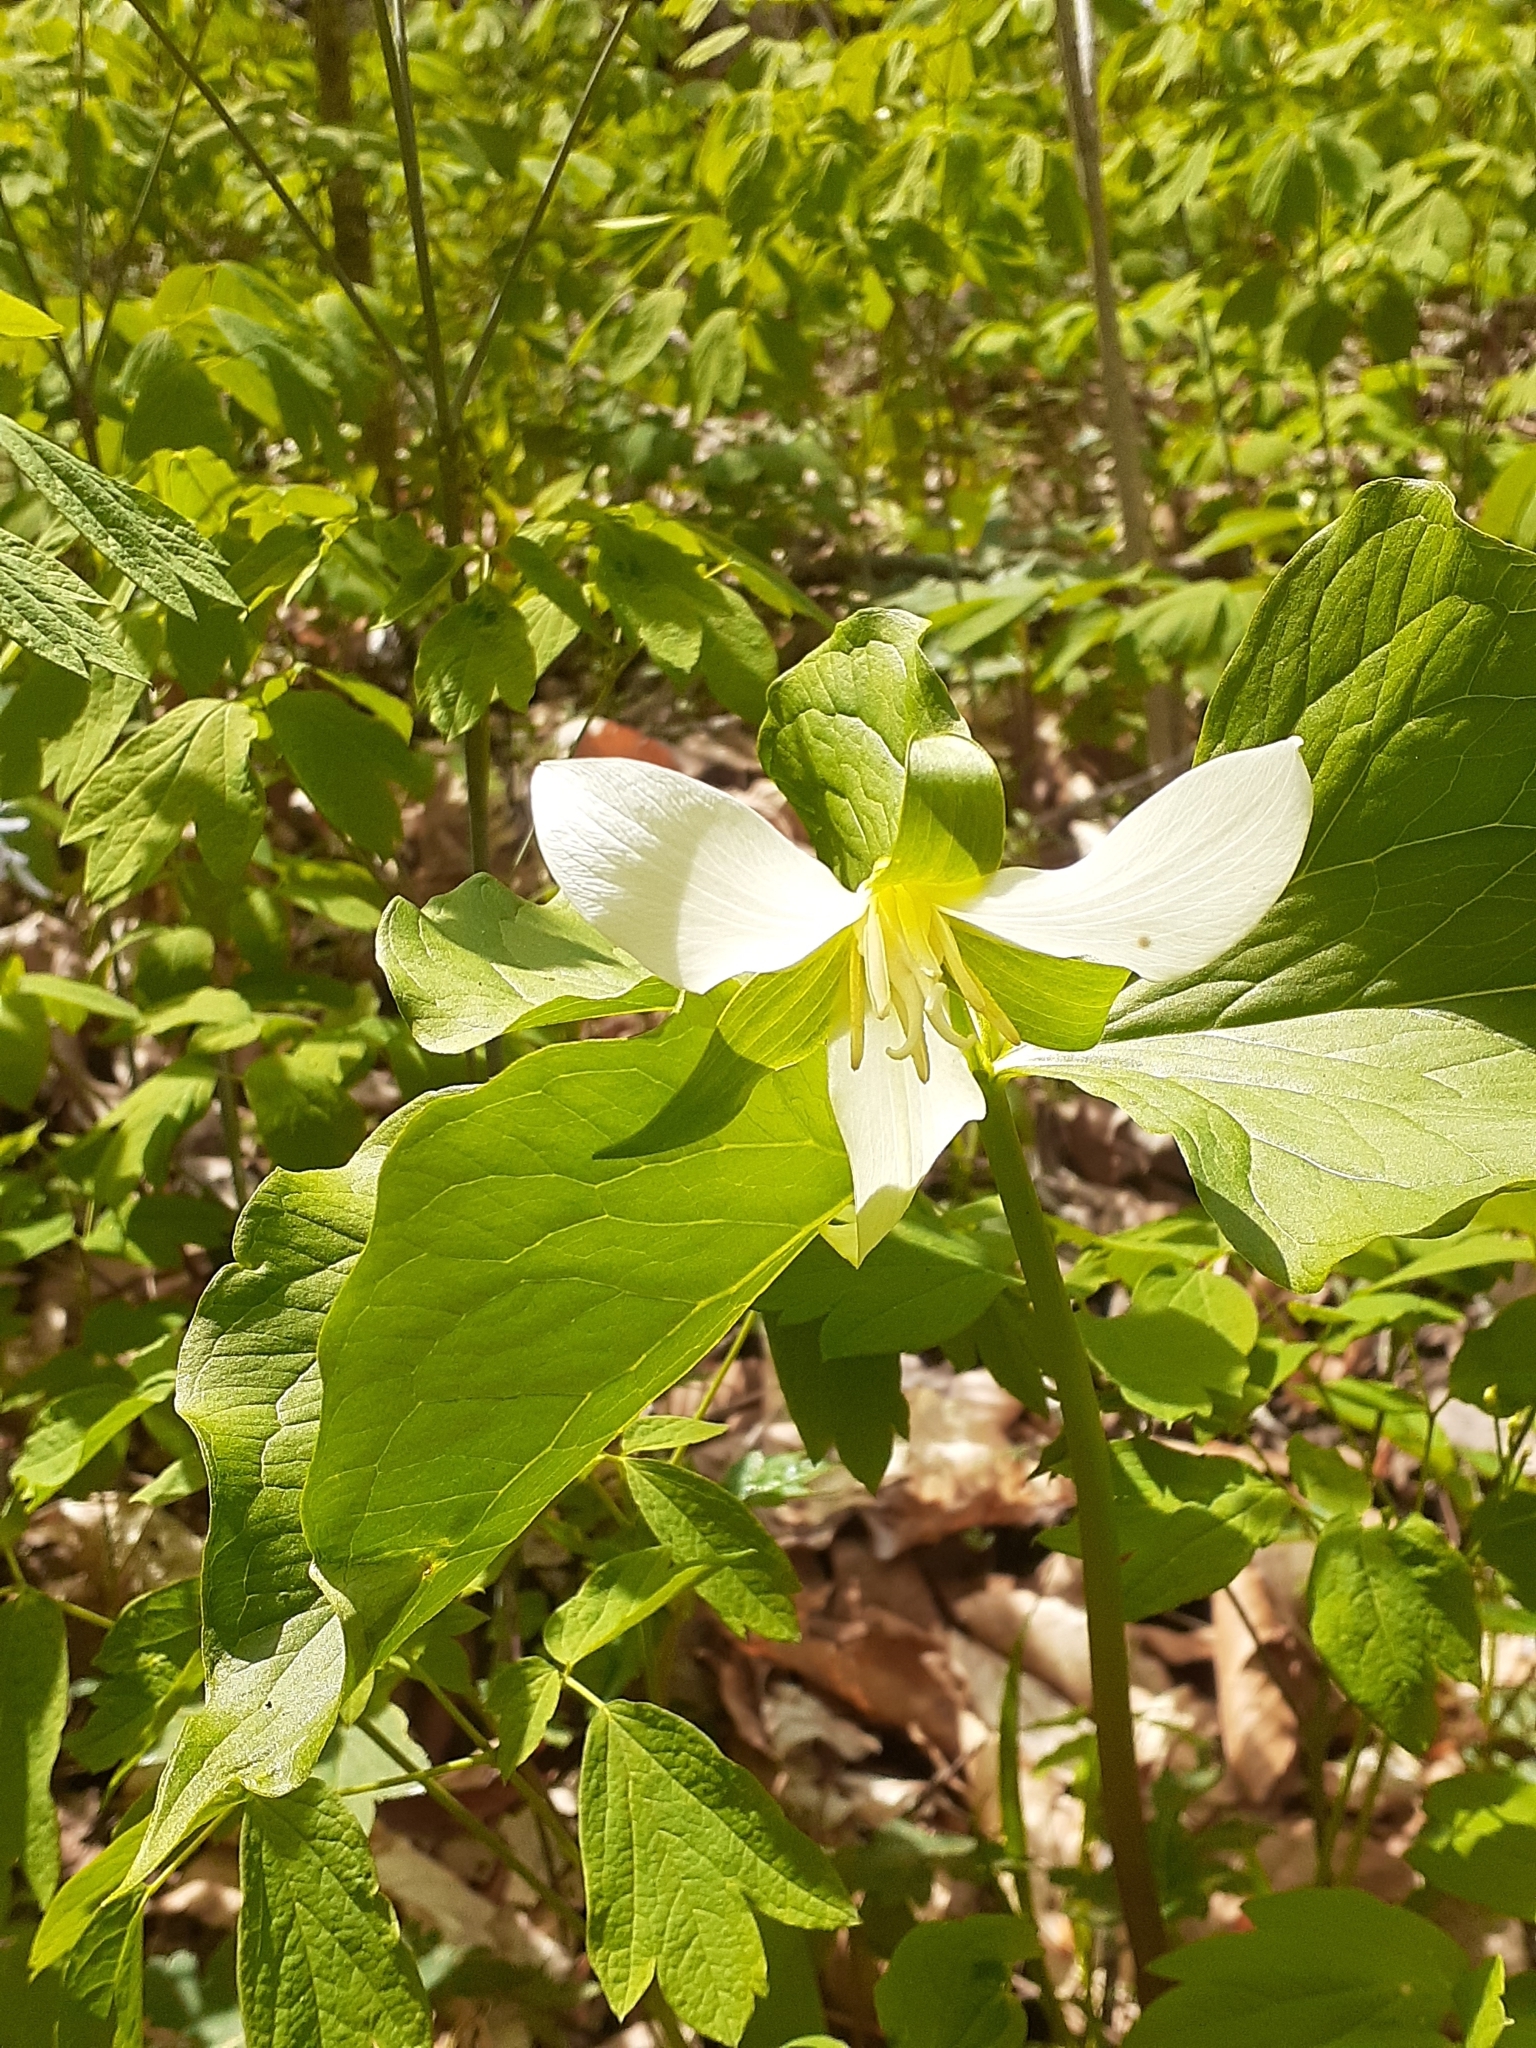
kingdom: Plantae
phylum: Tracheophyta
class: Liliopsida
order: Liliales
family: Melanthiaceae
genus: Trillium
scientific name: Trillium flexipes
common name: Drooping trillium
